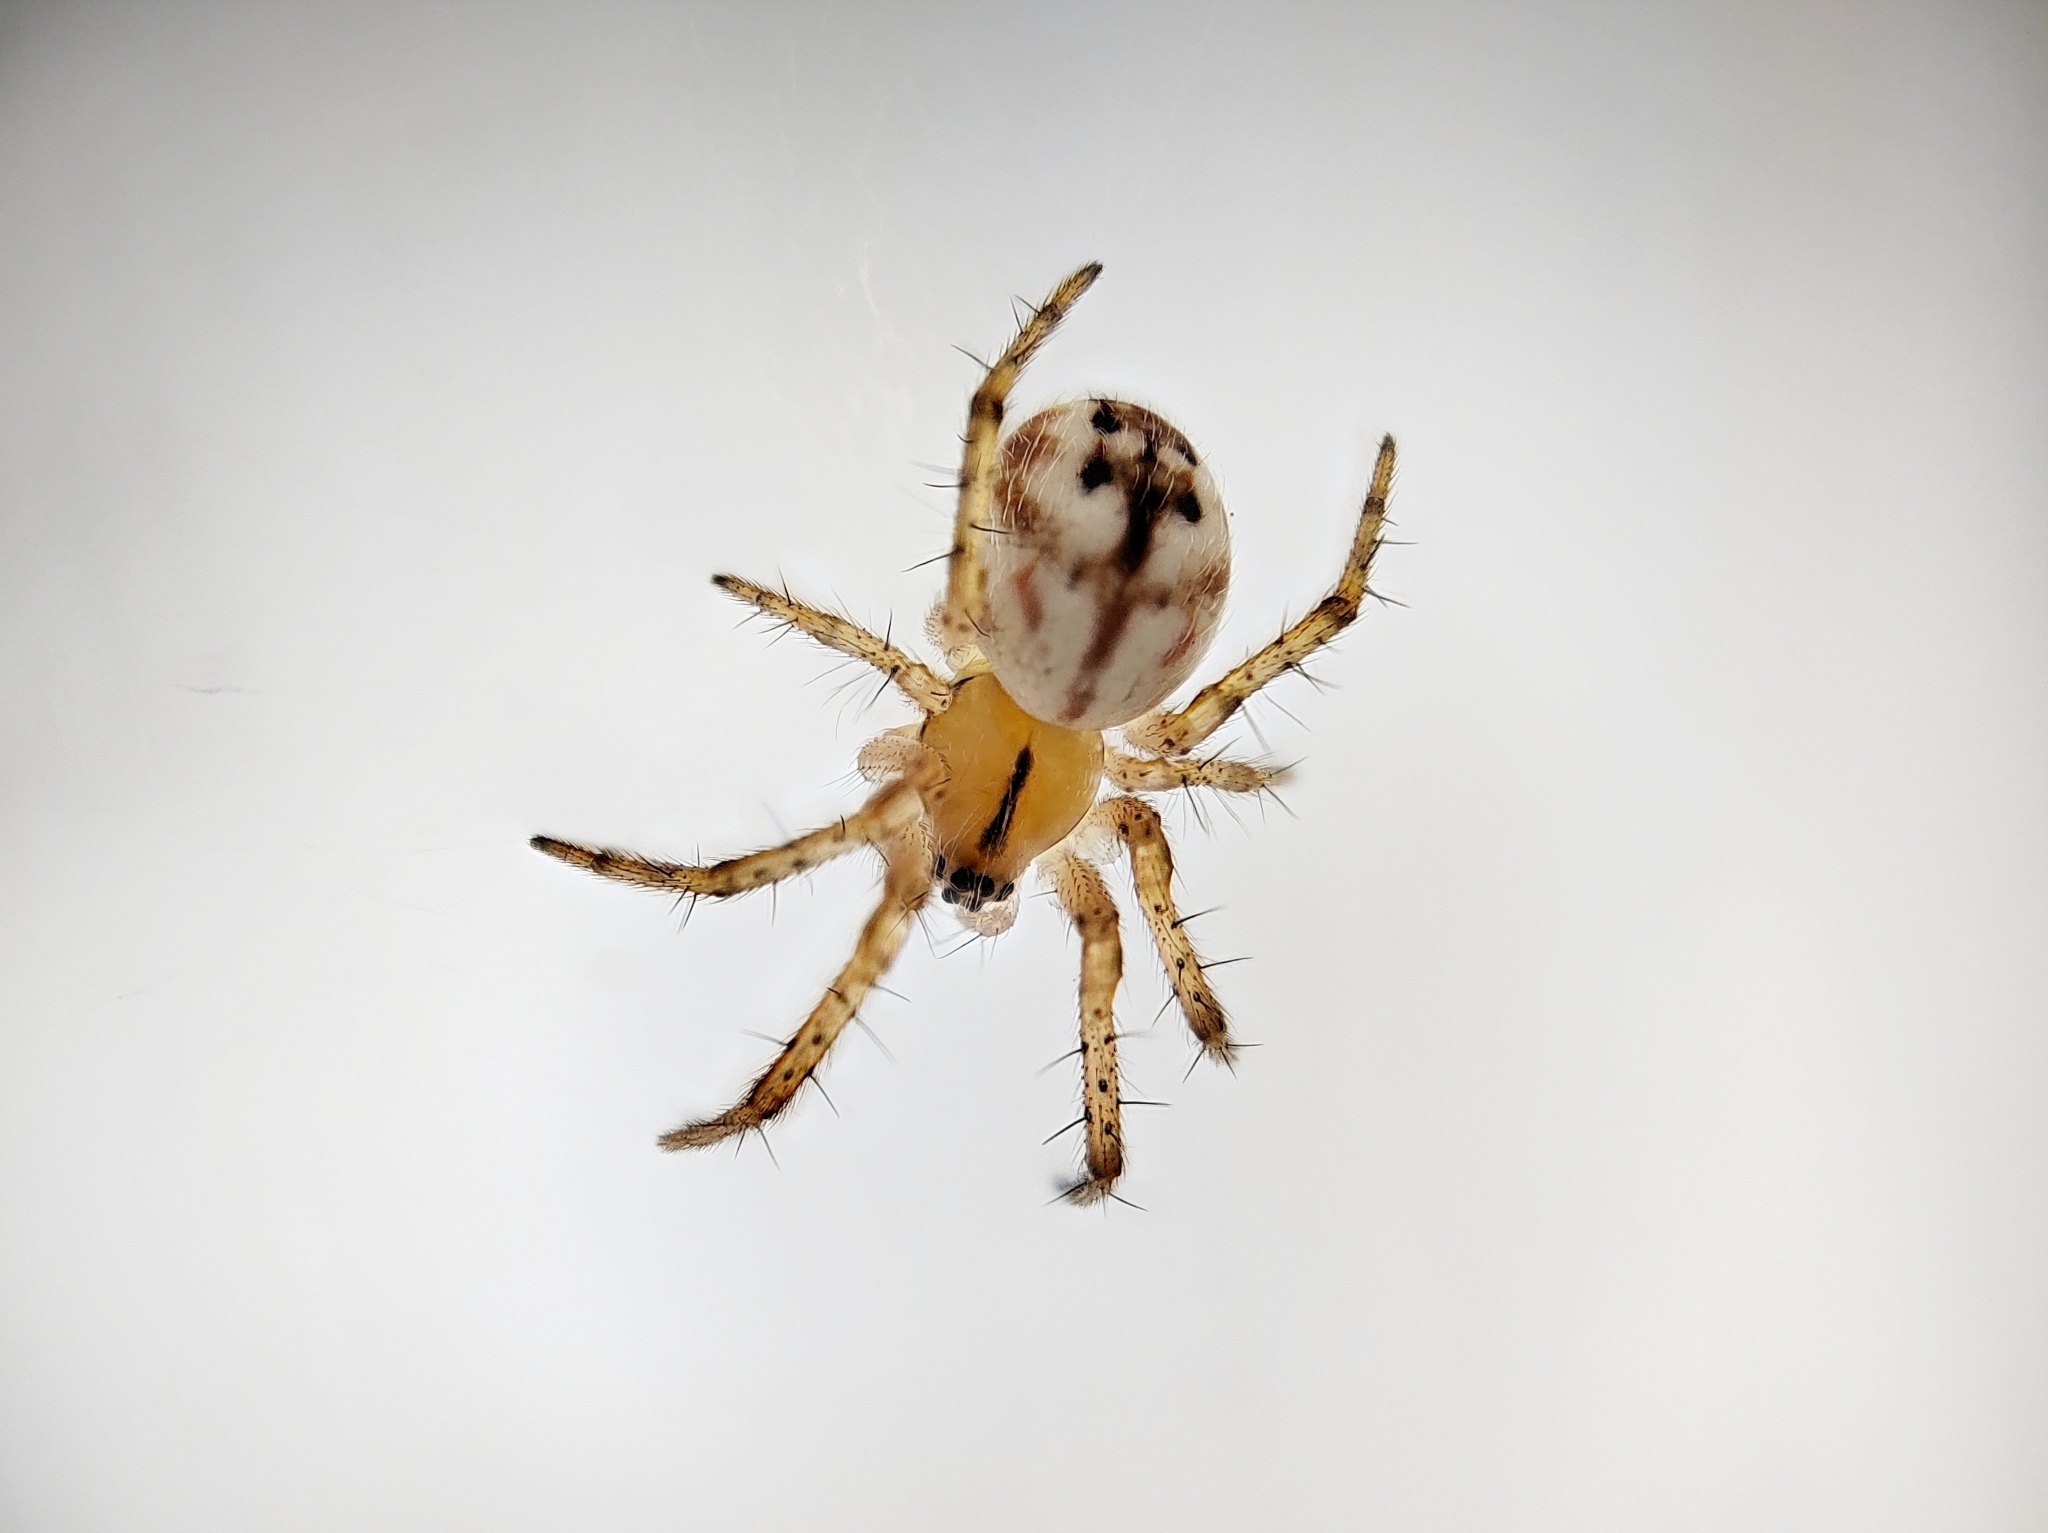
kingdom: Animalia
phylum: Arthropoda
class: Arachnida
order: Araneae
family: Araneidae
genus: Mangora
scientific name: Mangora acalypha
